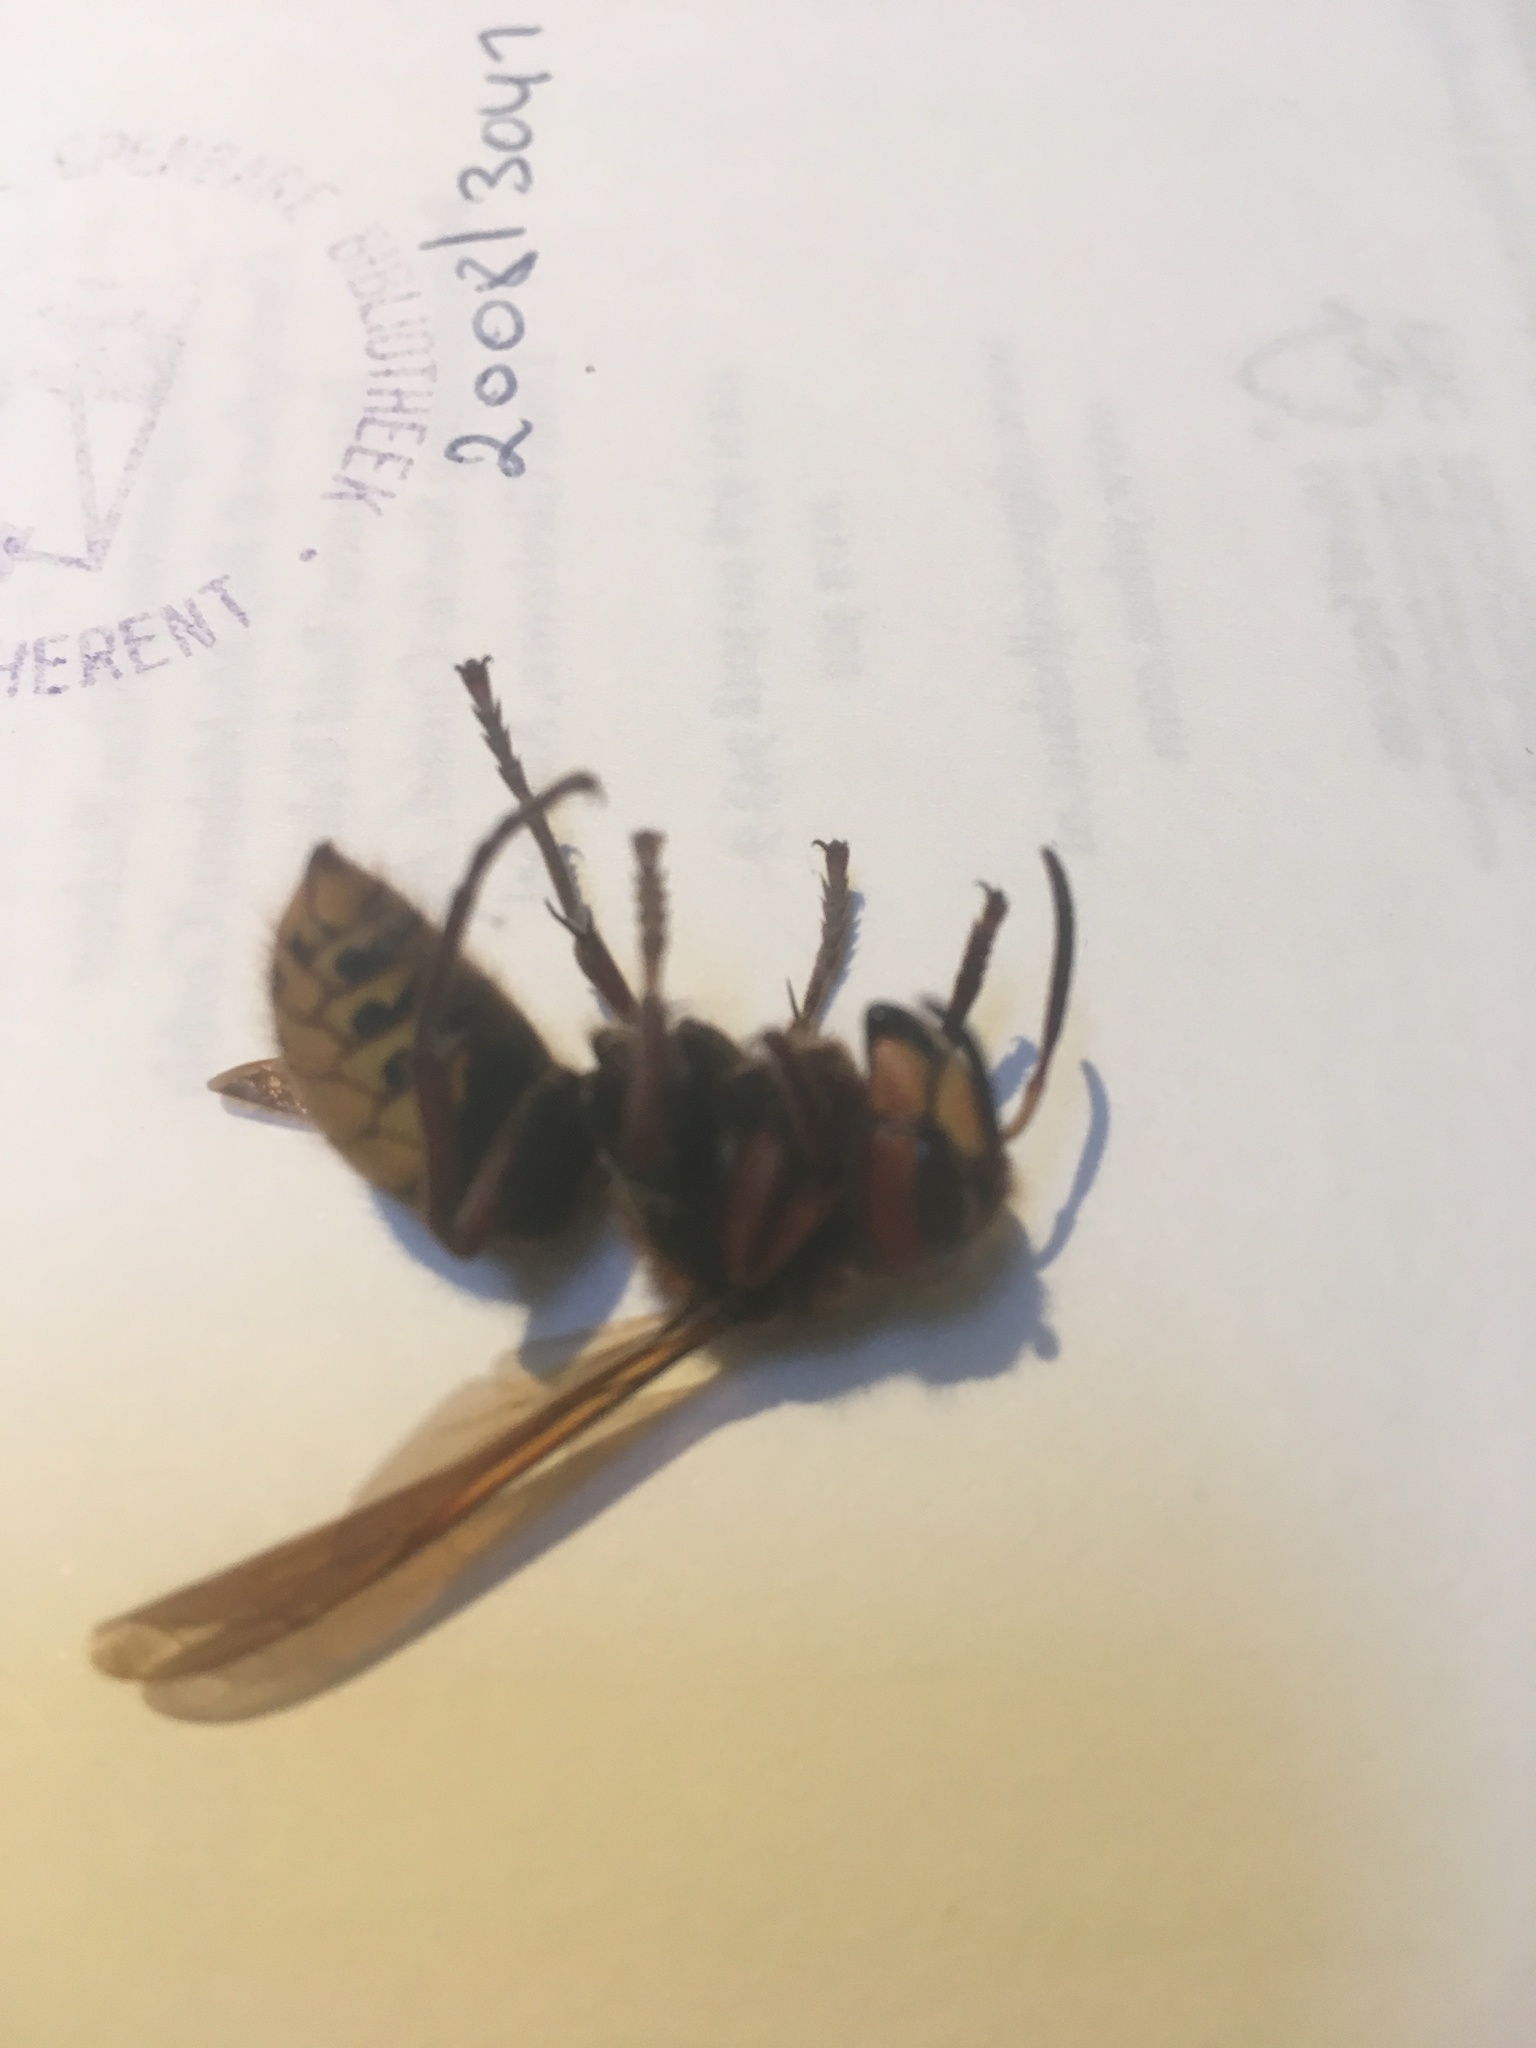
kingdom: Animalia
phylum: Arthropoda
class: Insecta
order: Hymenoptera
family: Vespidae
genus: Vespa
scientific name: Vespa crabro
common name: Hornet
